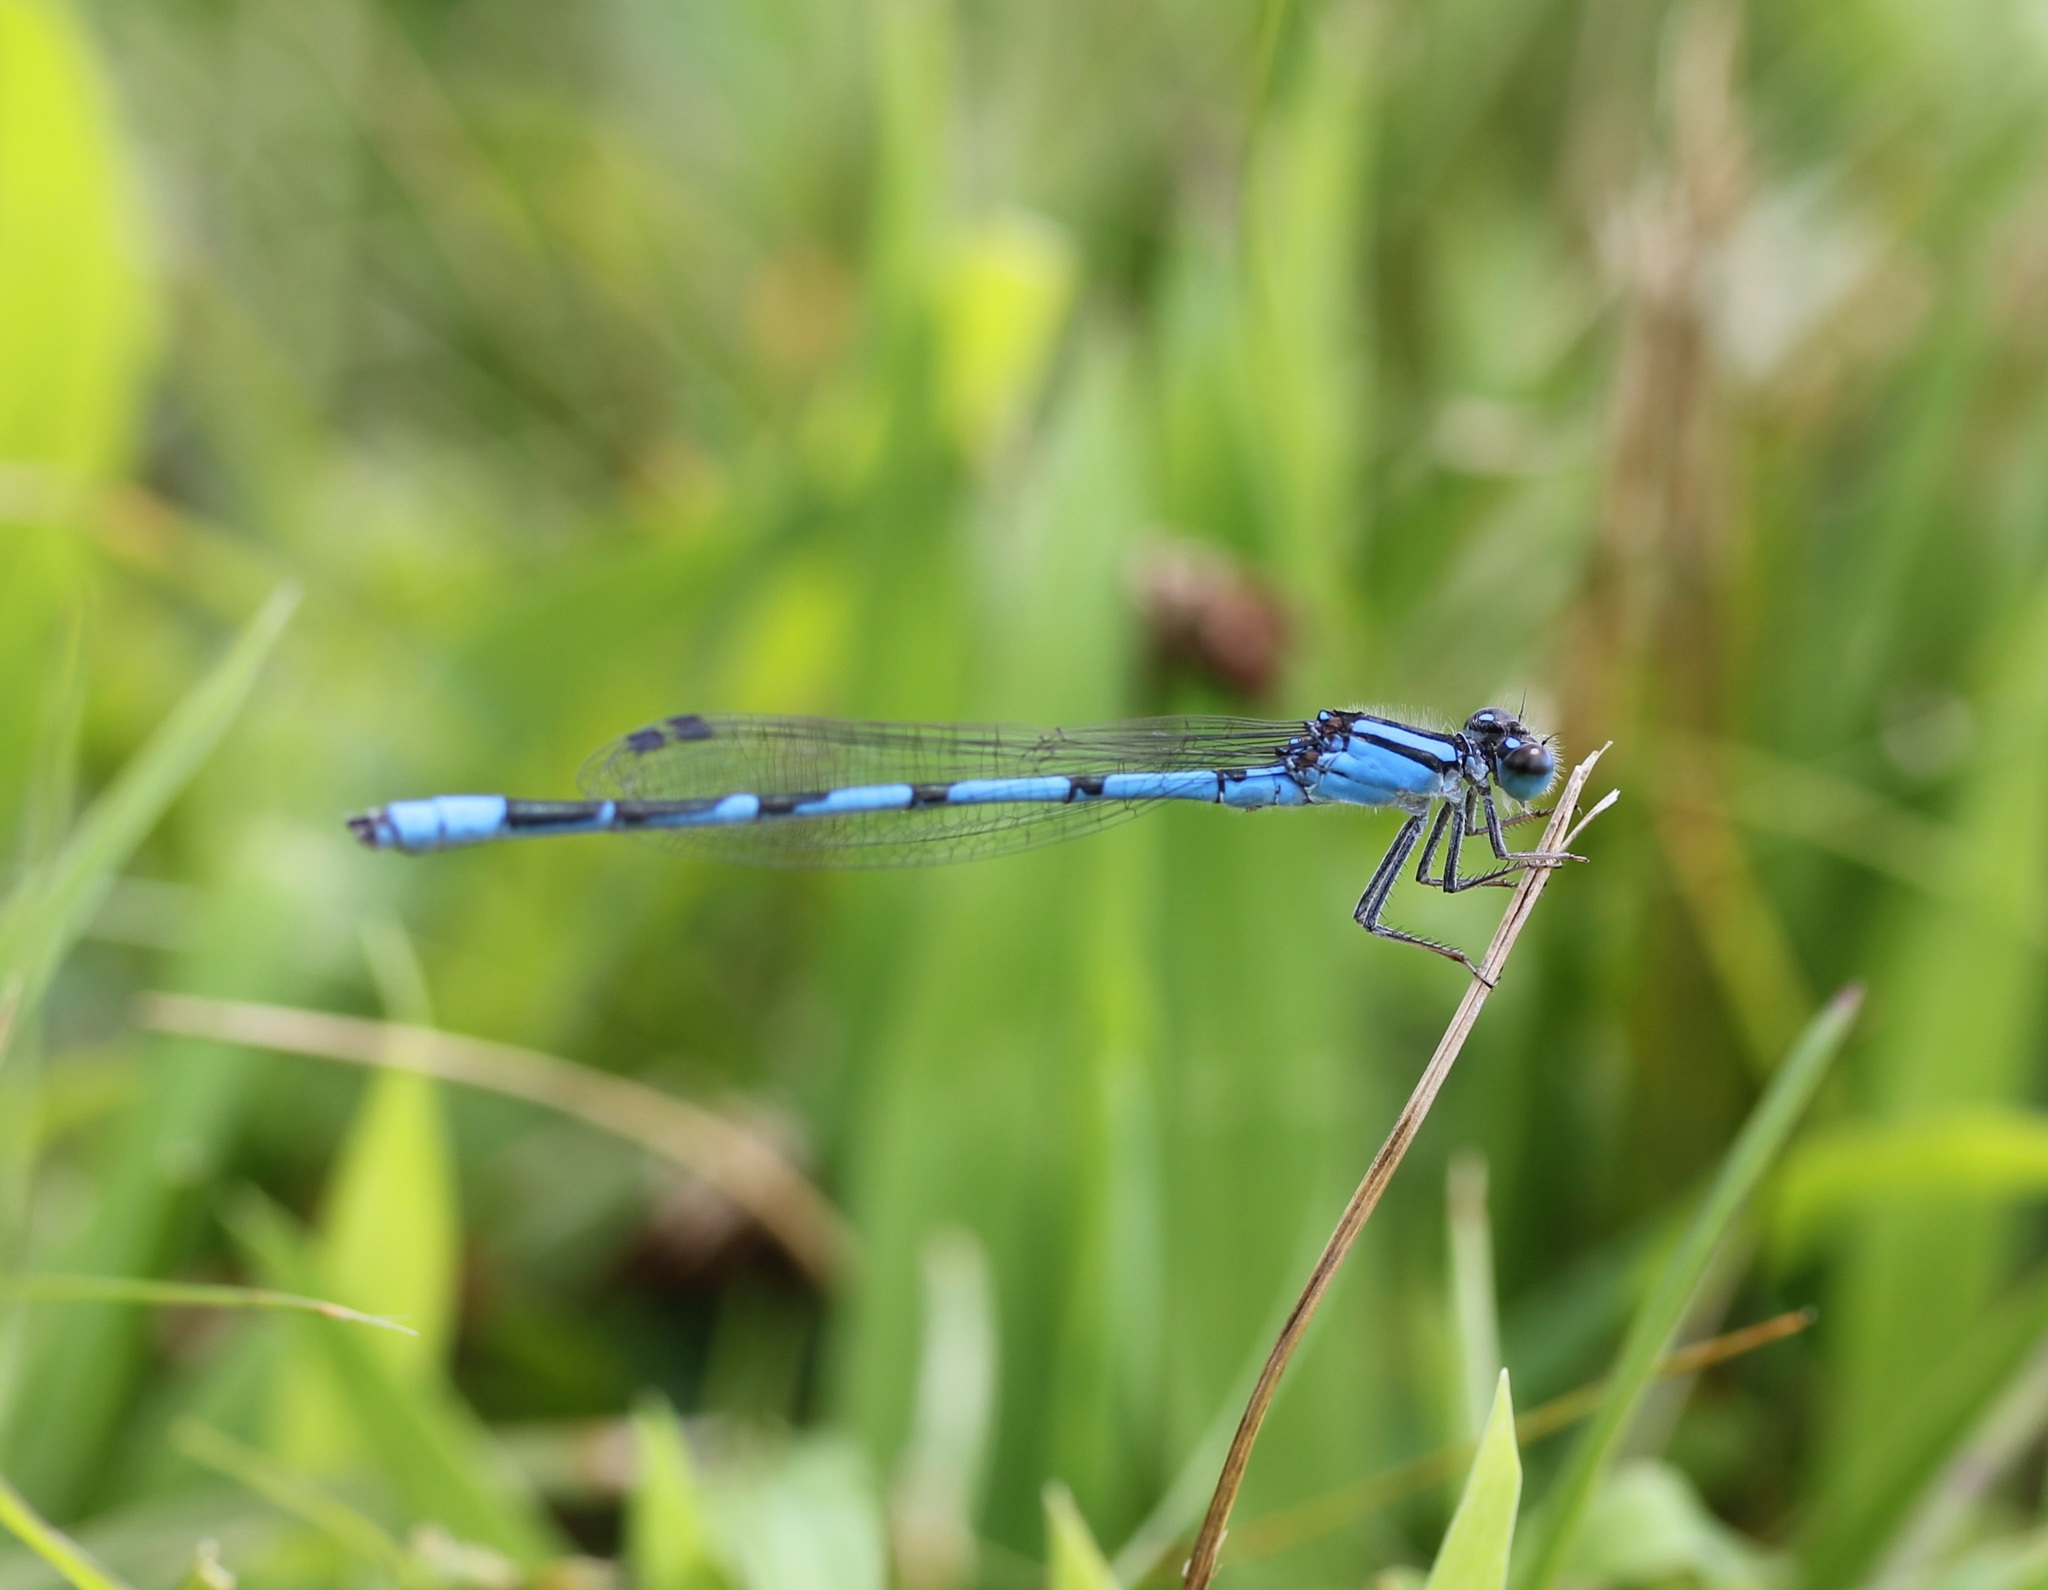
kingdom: Animalia
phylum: Arthropoda
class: Insecta
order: Odonata
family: Coenagrionidae
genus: Enallagma
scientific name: Enallagma civile
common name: Damselfly
